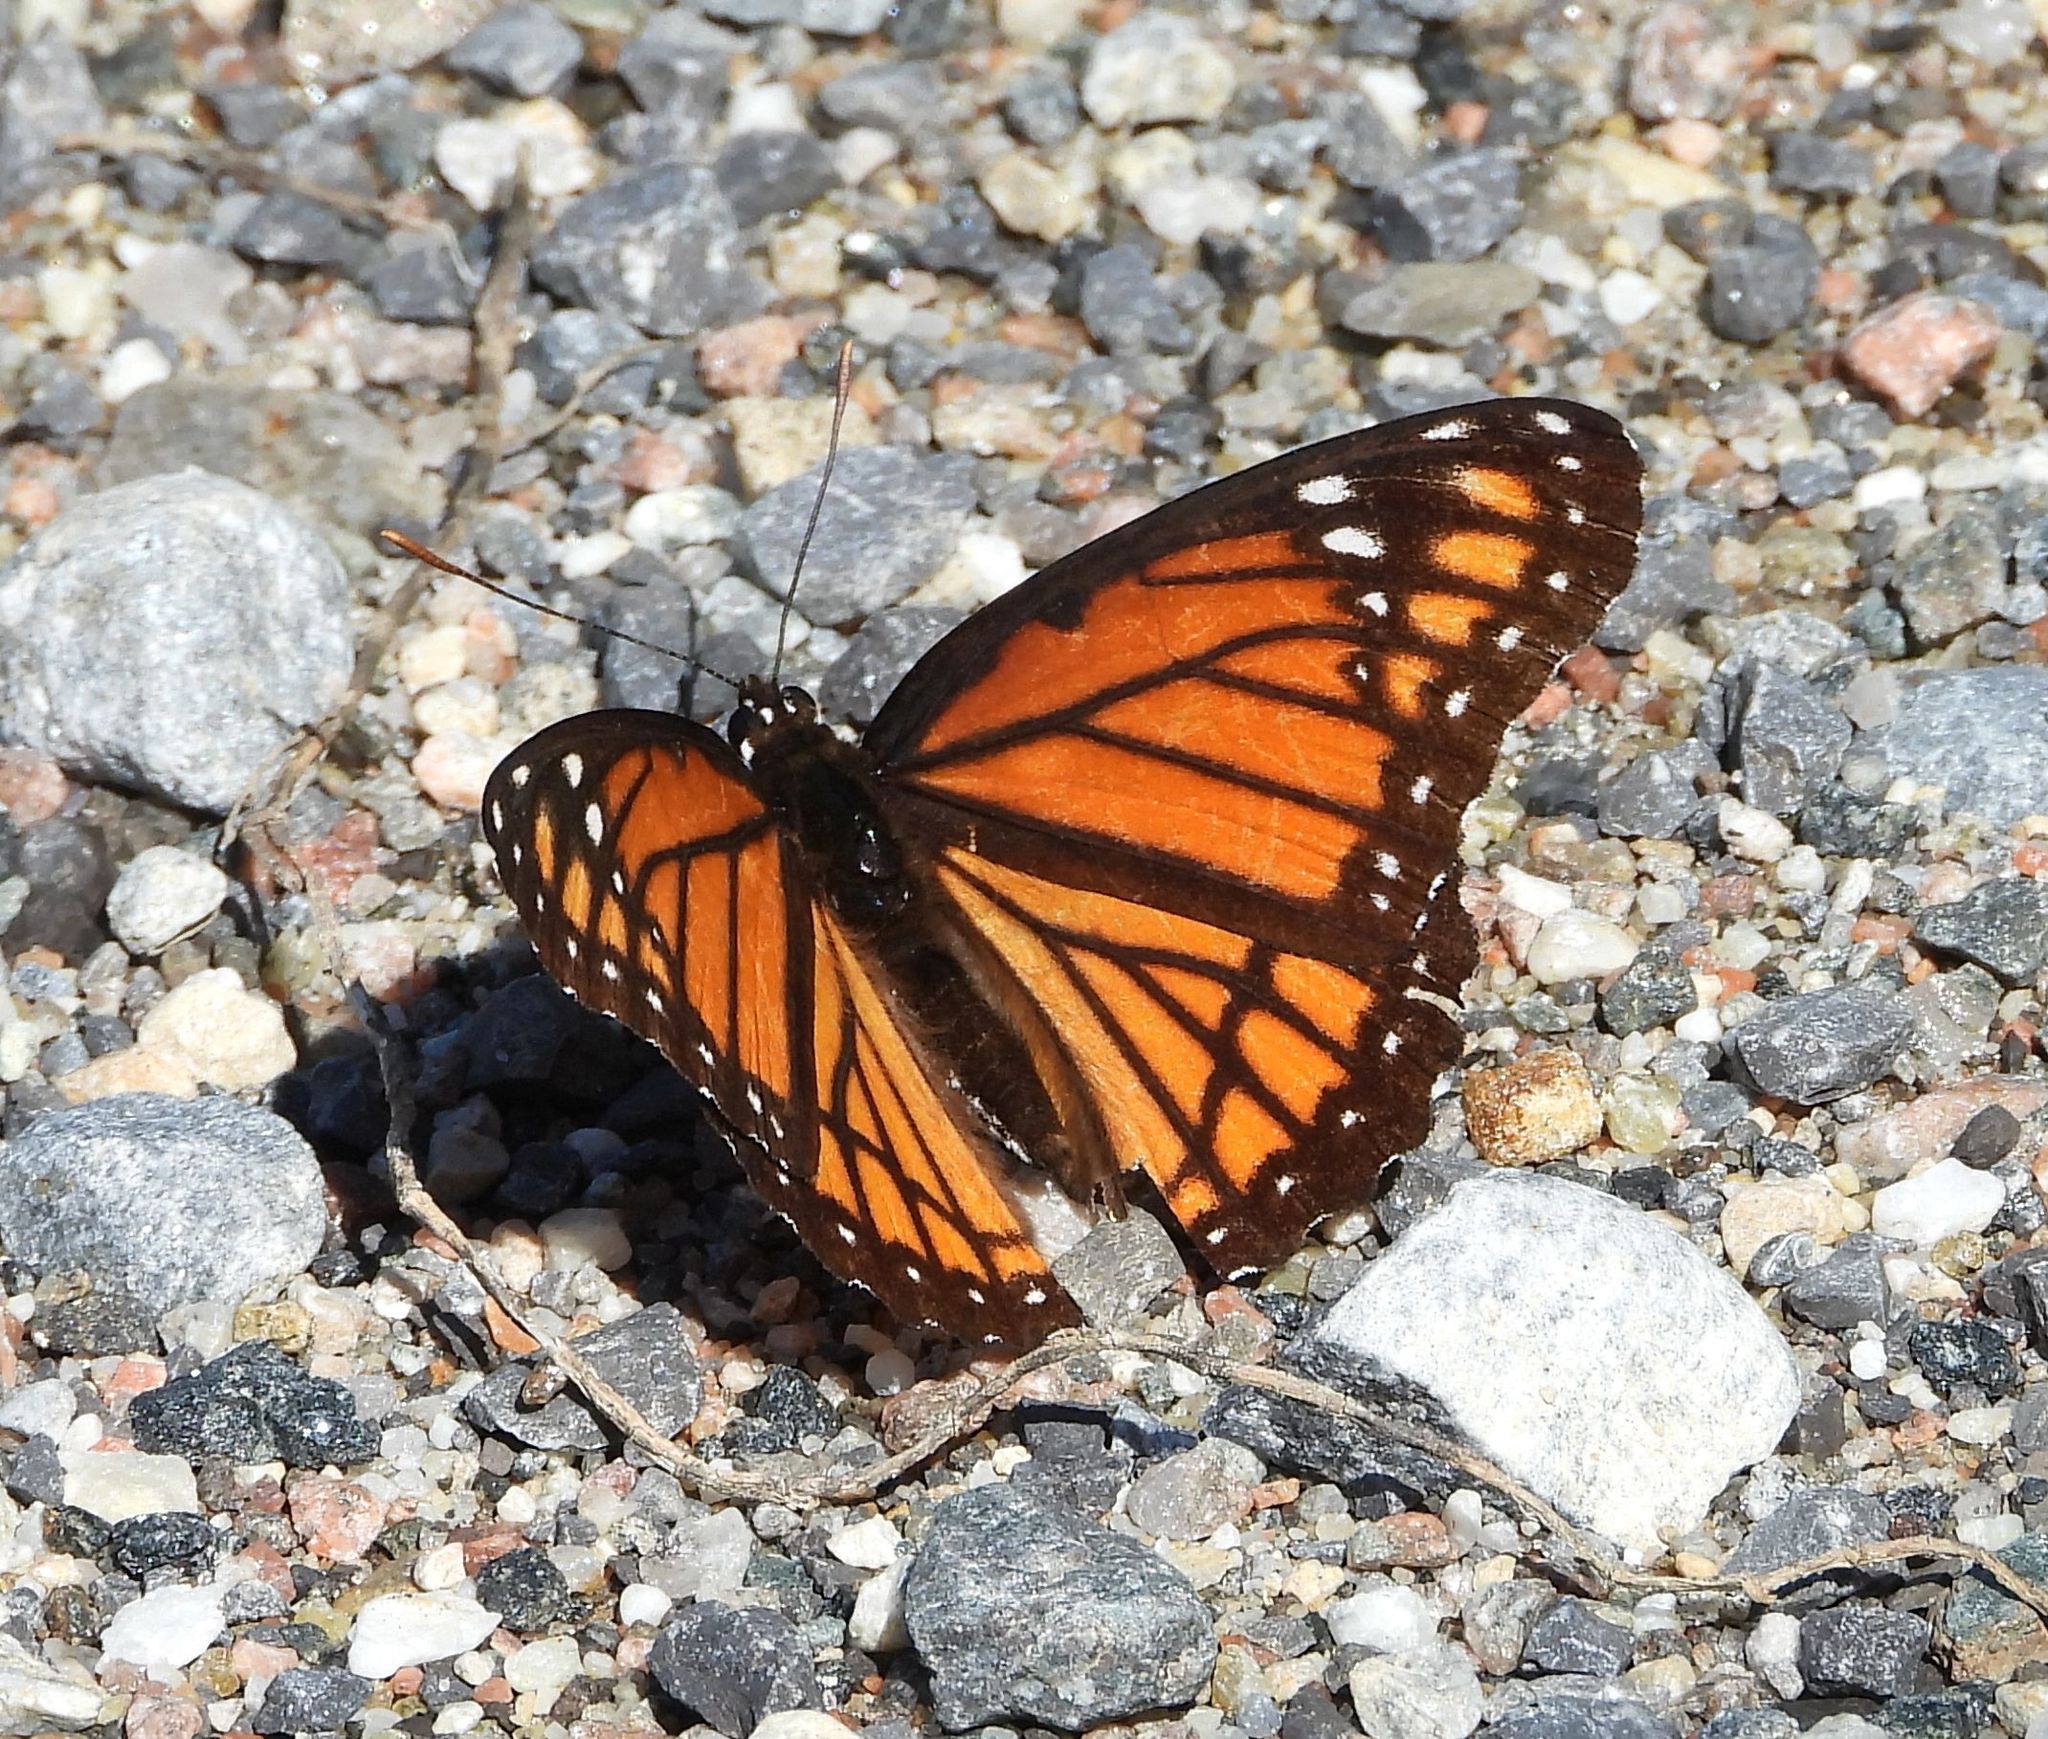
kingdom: Animalia
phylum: Arthropoda
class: Insecta
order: Lepidoptera
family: Nymphalidae
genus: Limenitis
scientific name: Limenitis archippus
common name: Viceroy
